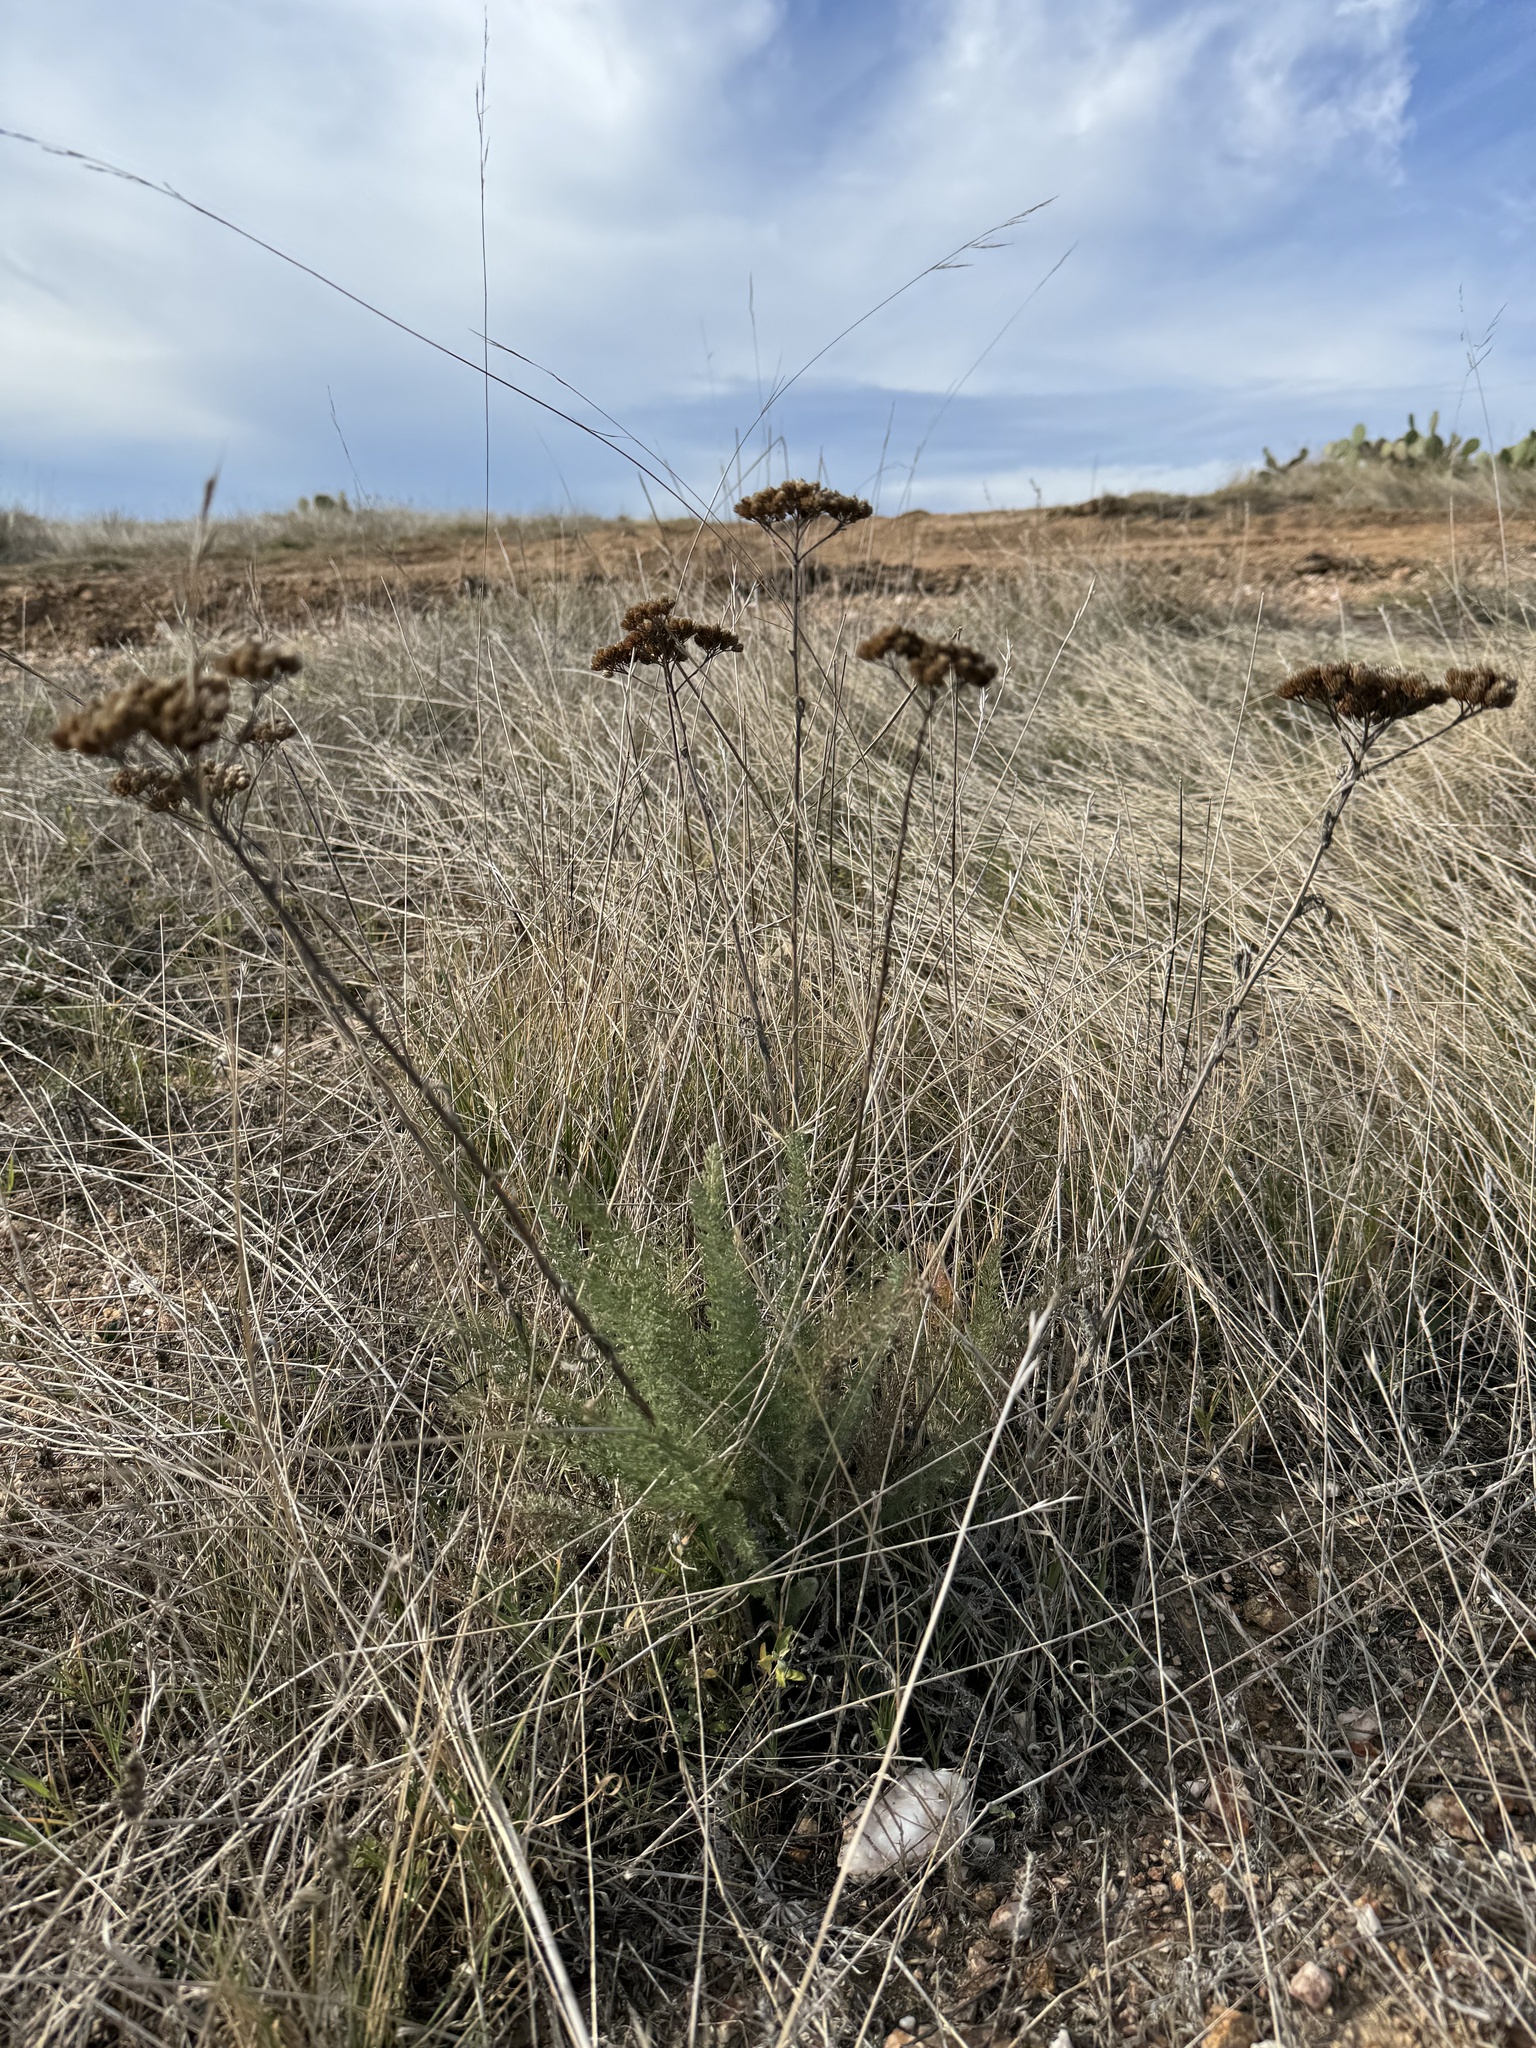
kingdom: Plantae
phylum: Tracheophyta
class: Magnoliopsida
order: Asterales
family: Asteraceae
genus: Achillea
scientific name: Achillea millefolium
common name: Yarrow
